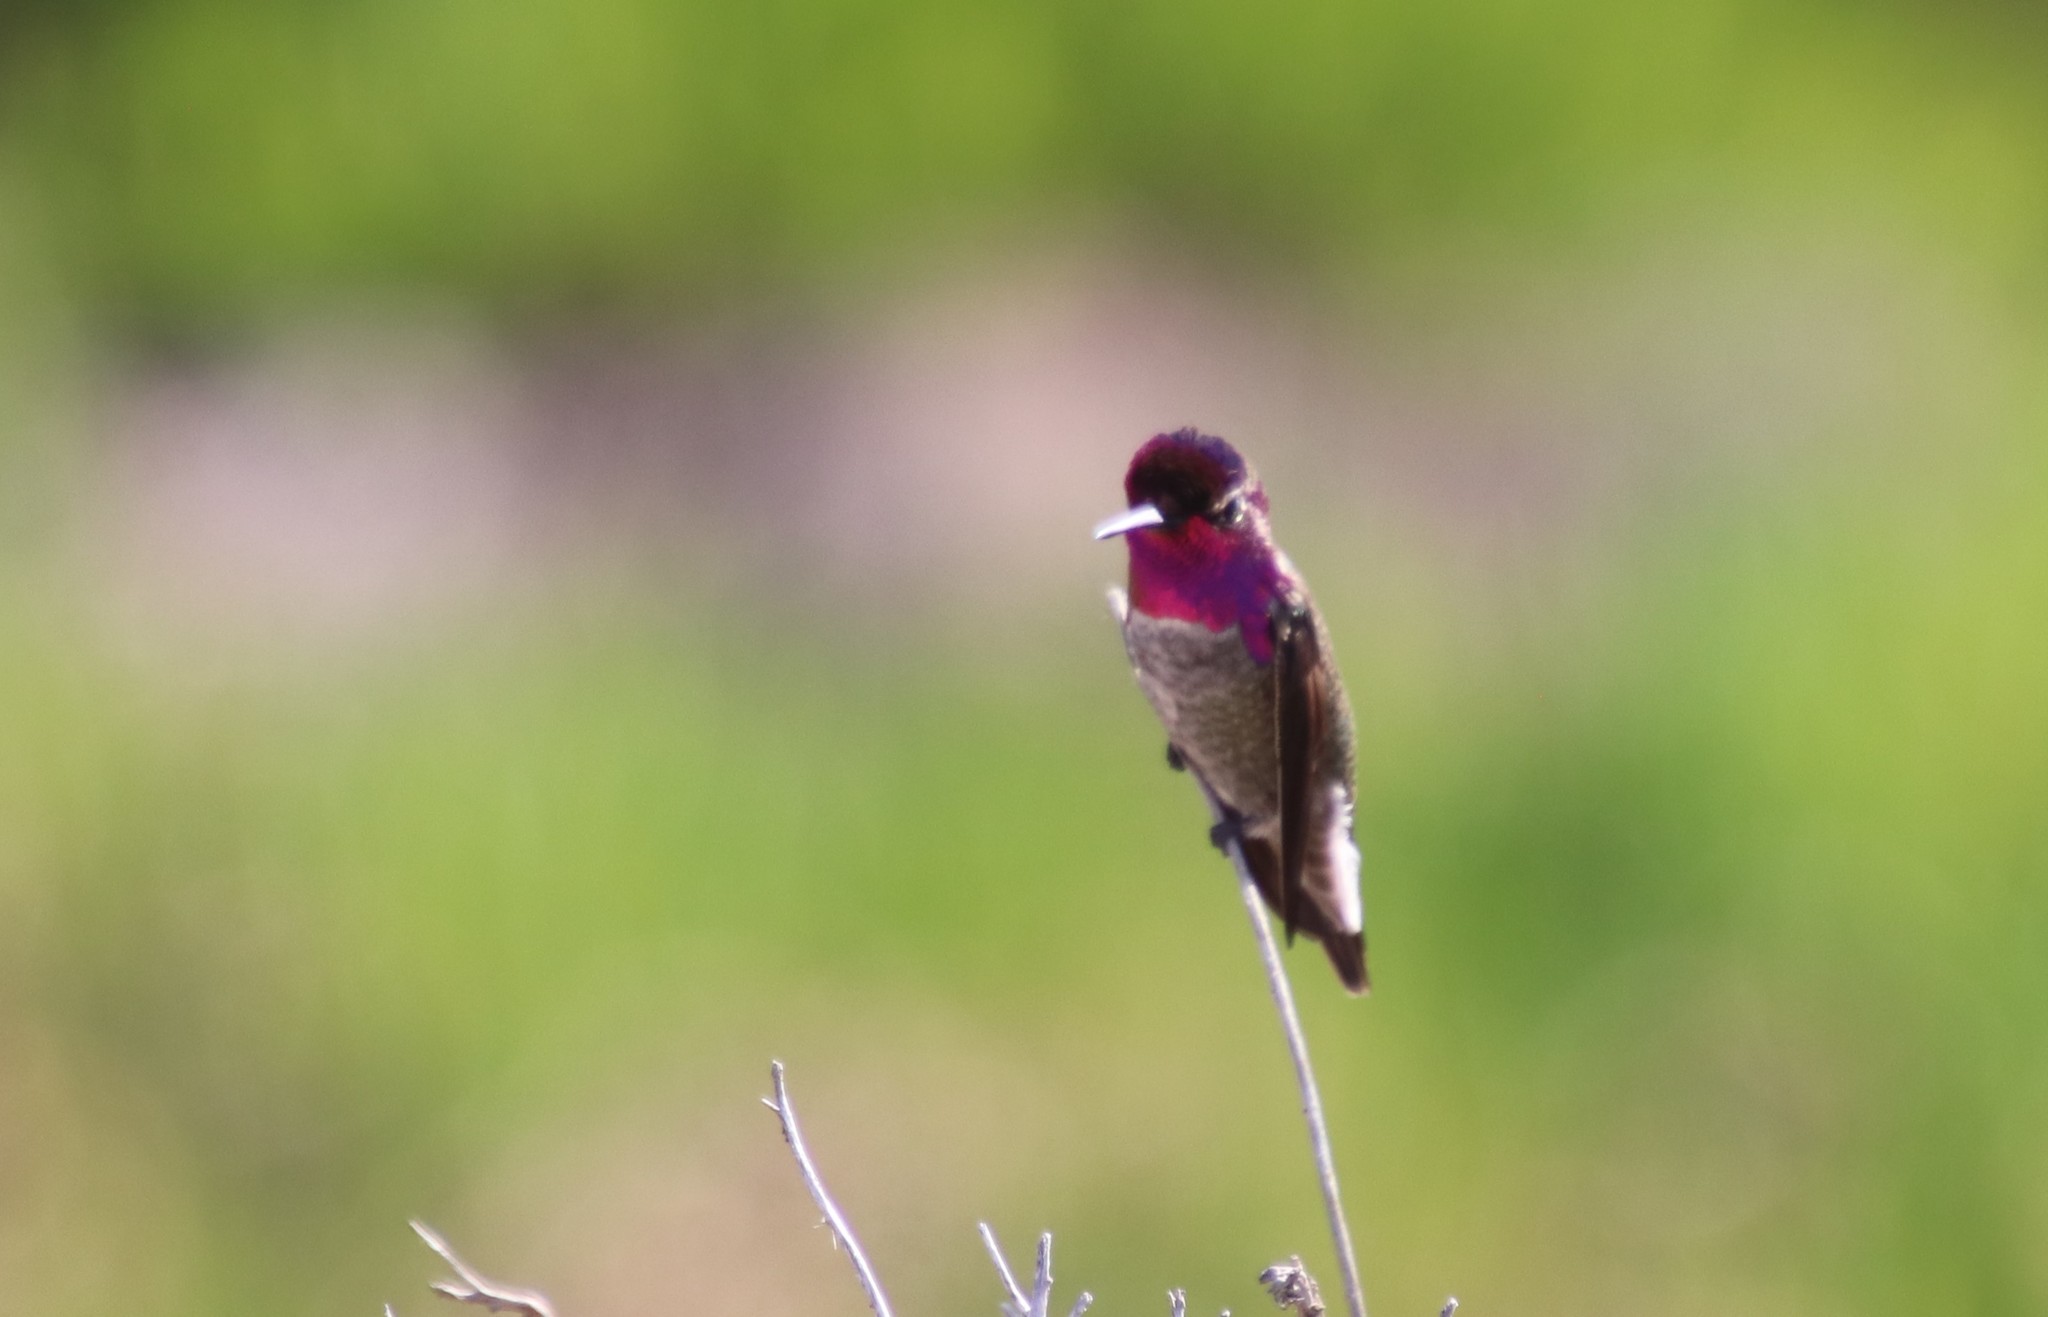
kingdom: Animalia
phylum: Chordata
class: Aves
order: Apodiformes
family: Trochilidae
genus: Calypte
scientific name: Calypte anna
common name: Anna's hummingbird
